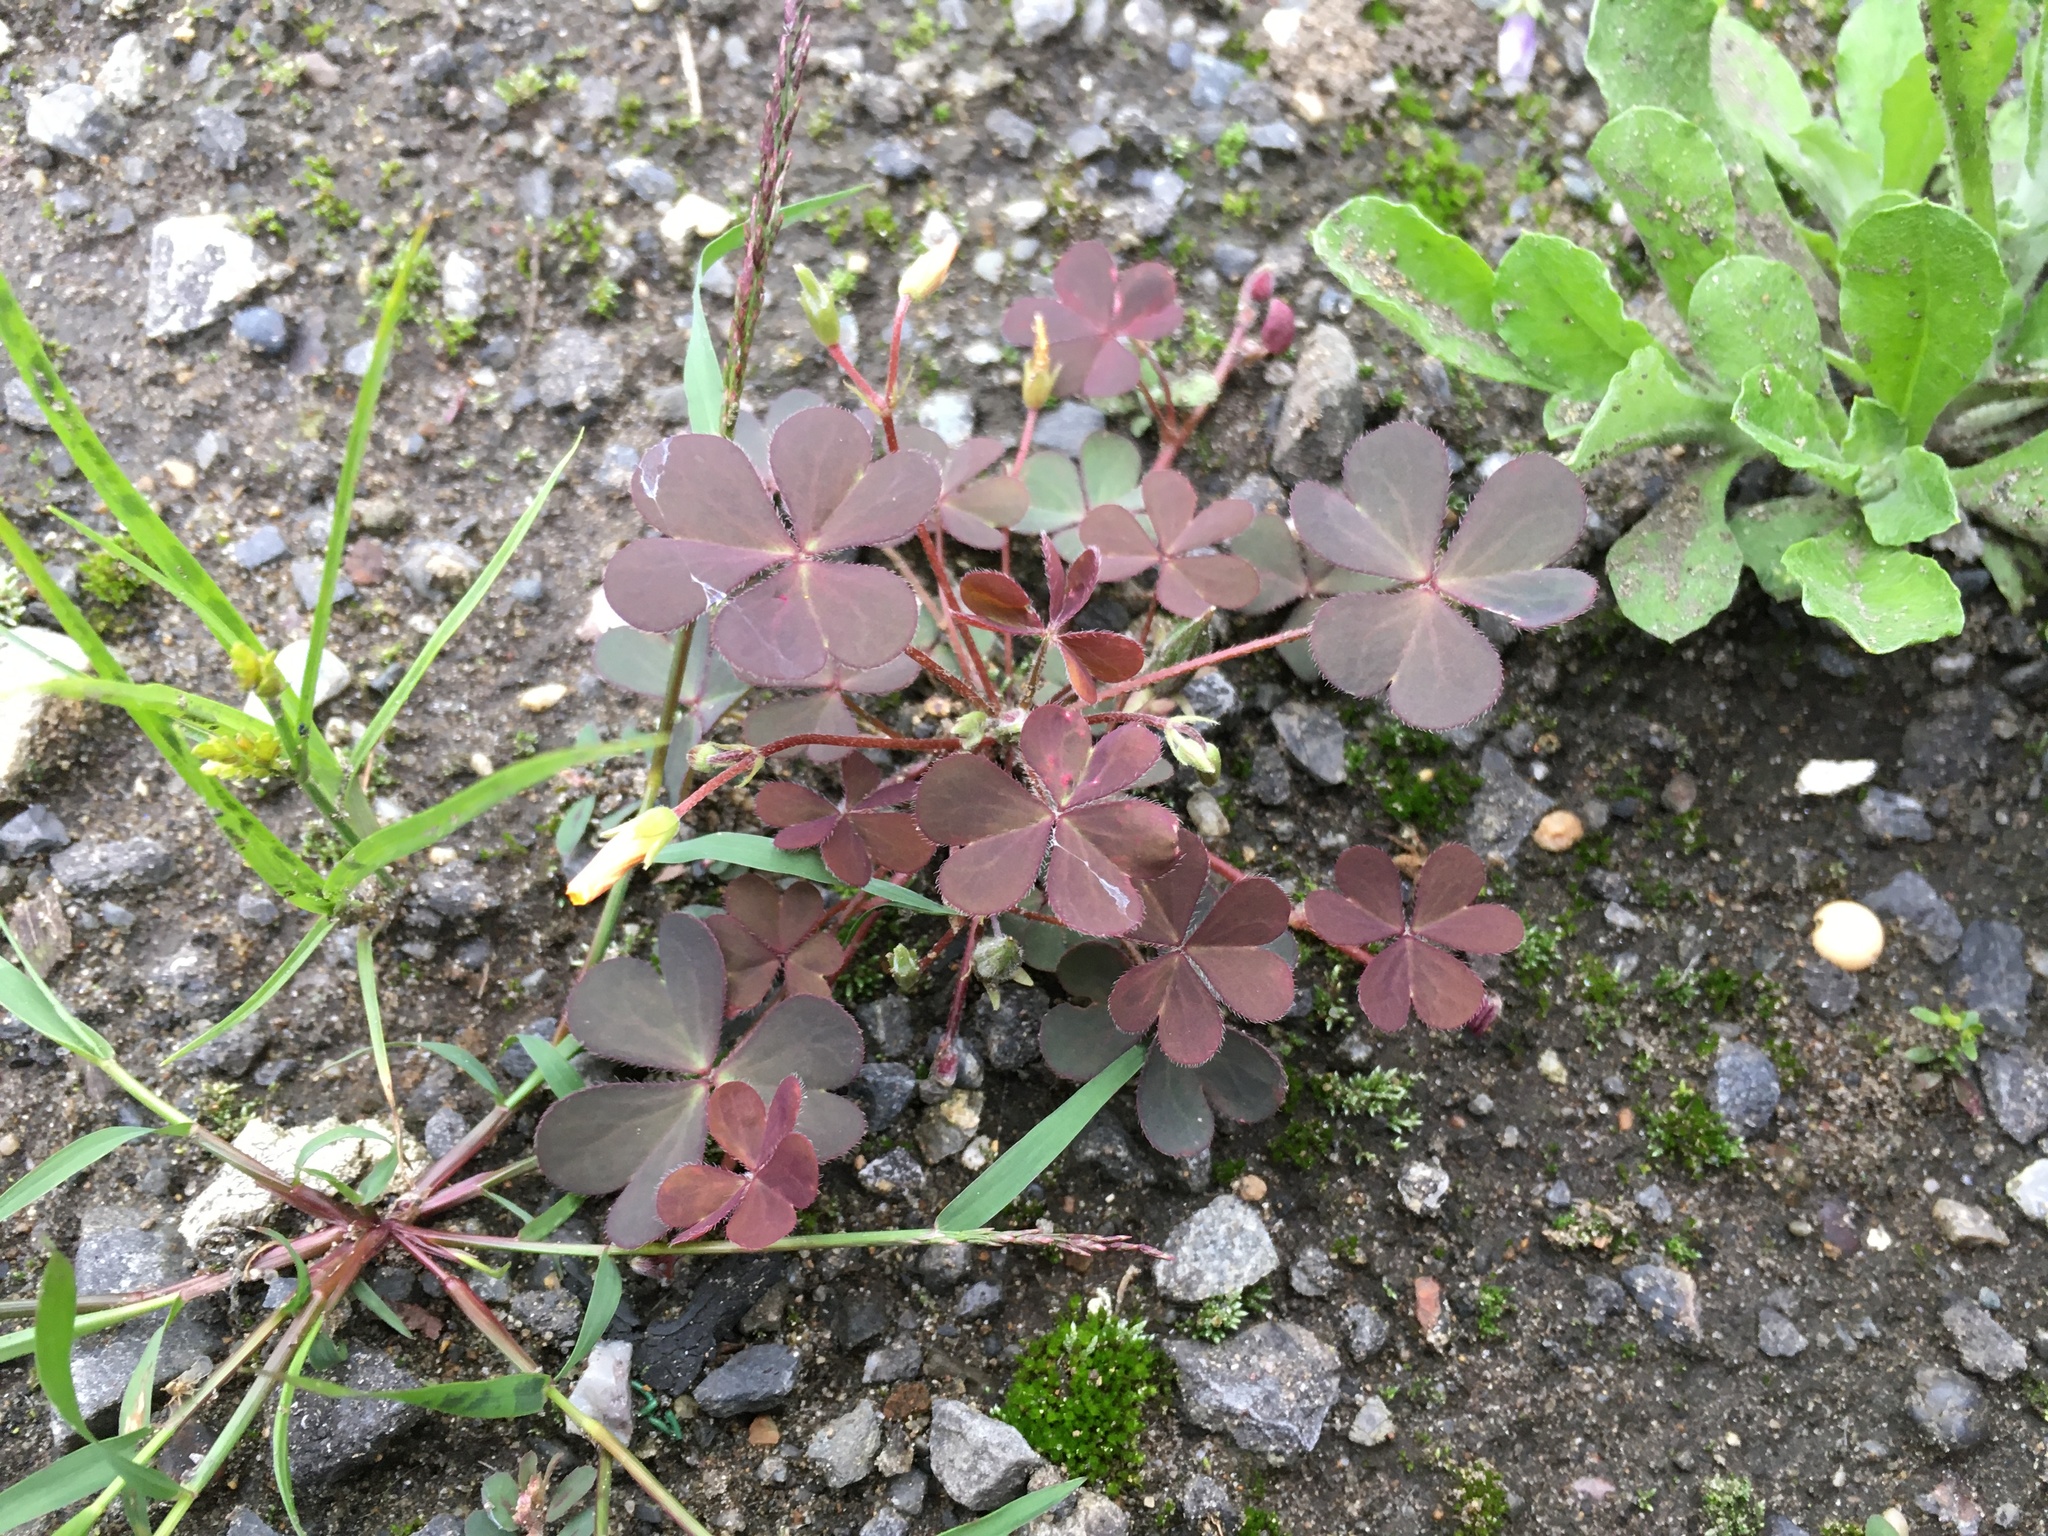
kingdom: Plantae
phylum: Tracheophyta
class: Magnoliopsida
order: Oxalidales
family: Oxalidaceae
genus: Oxalis
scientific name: Oxalis corniculata
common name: Procumbent yellow-sorrel
